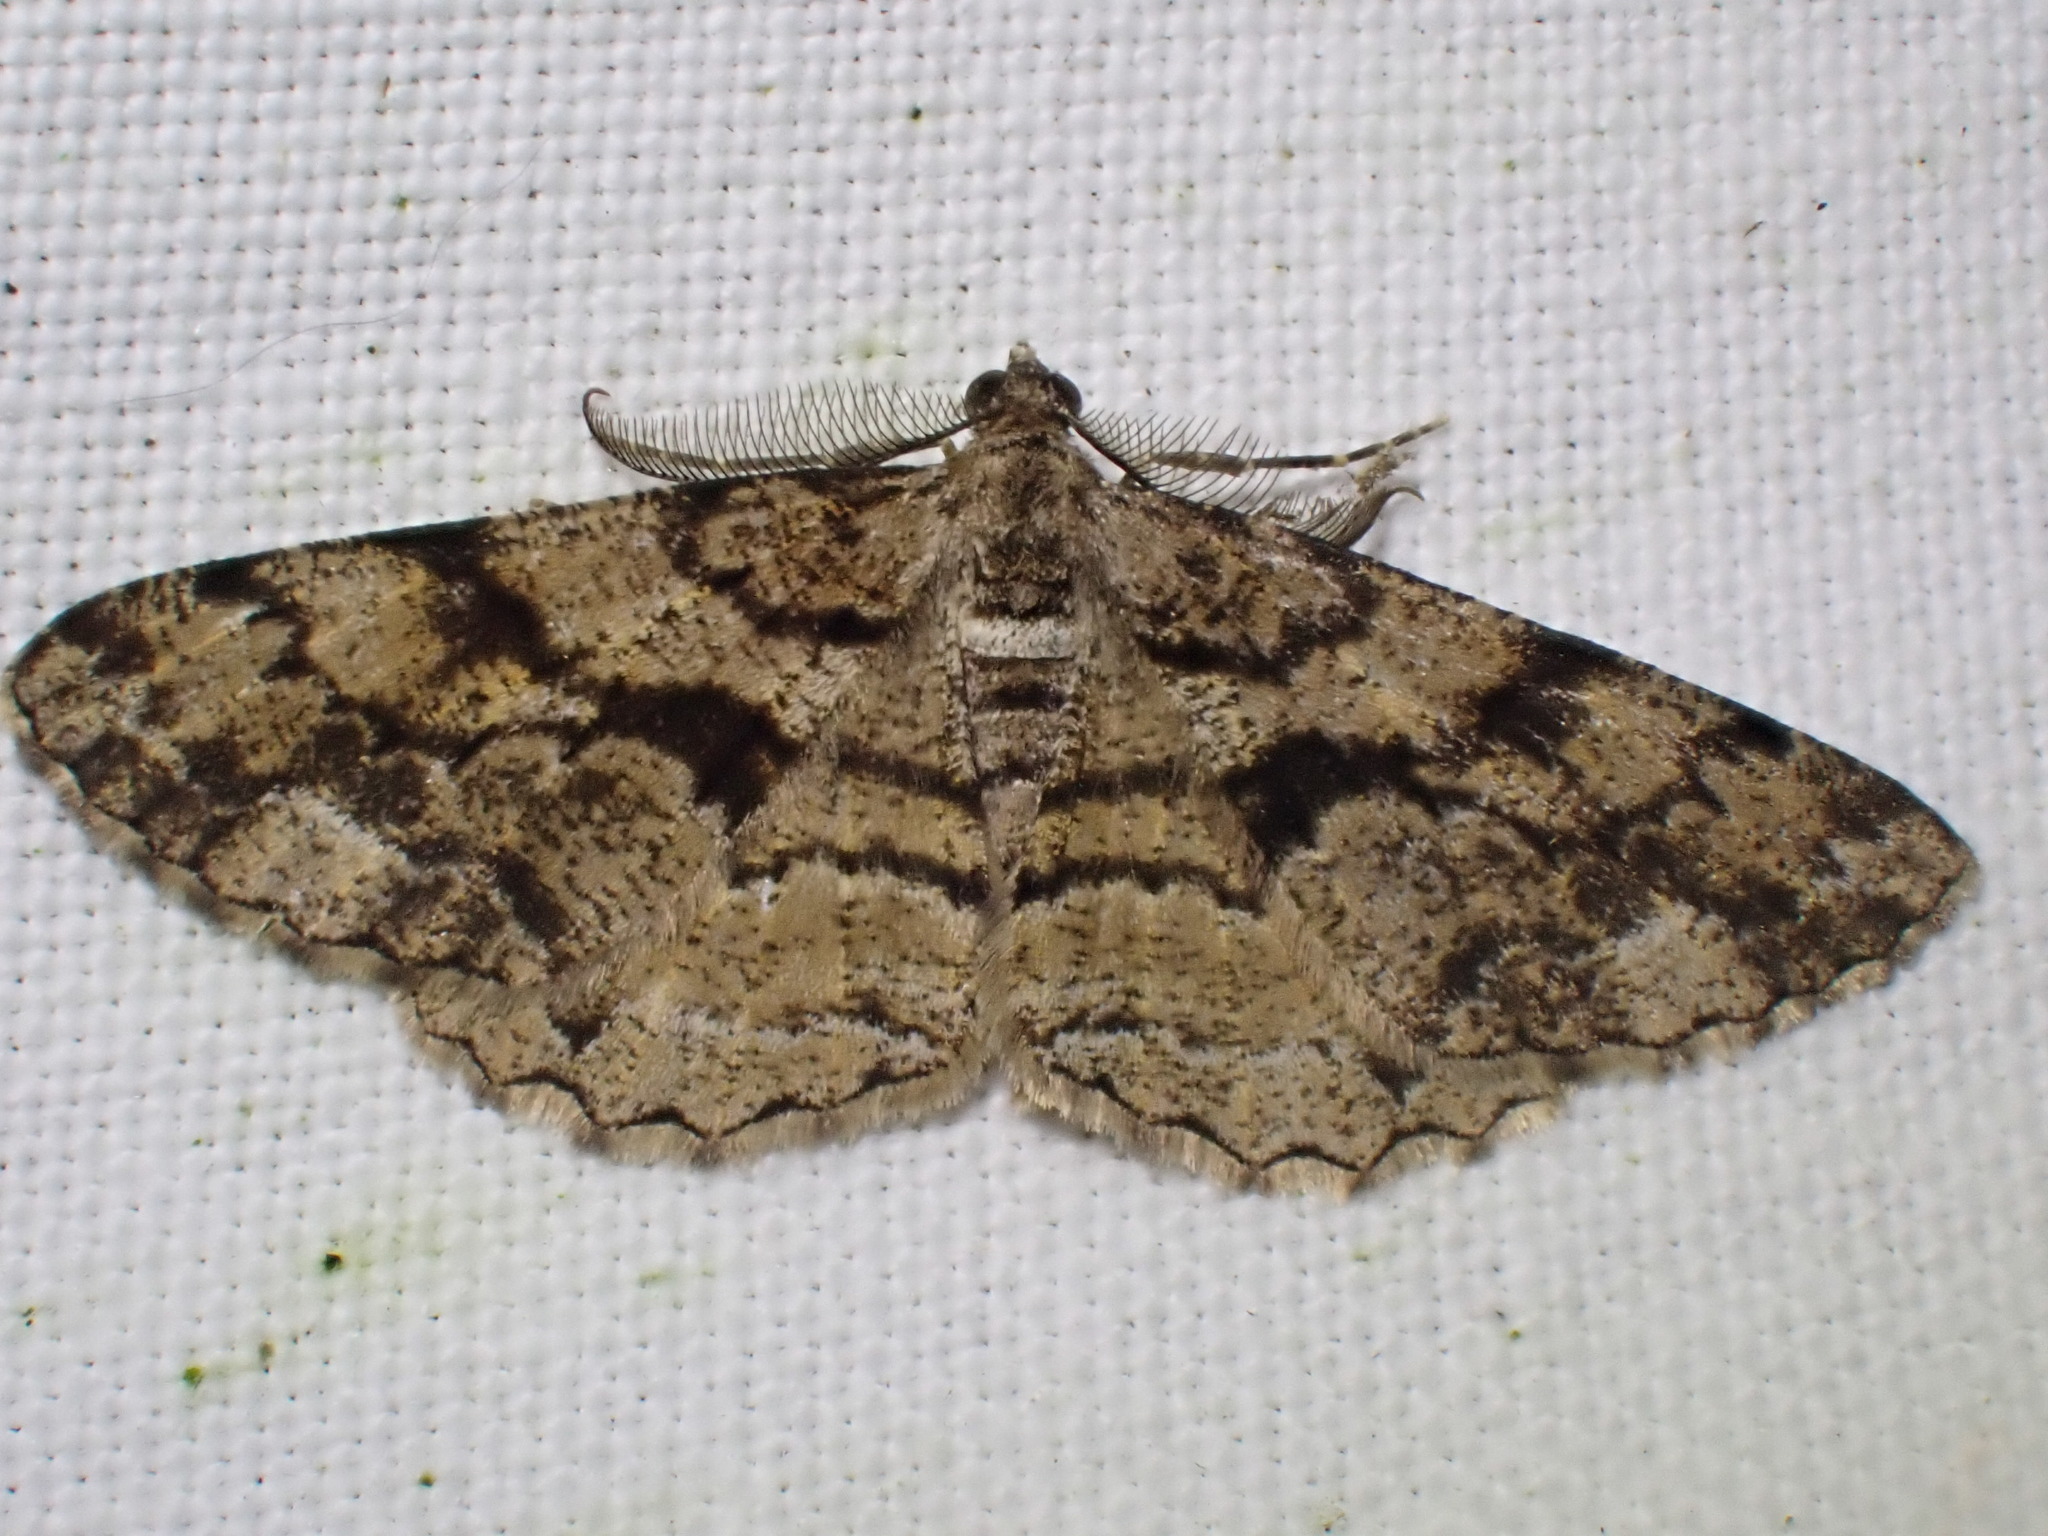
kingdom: Animalia
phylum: Arthropoda
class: Insecta
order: Lepidoptera
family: Geometridae
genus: Peribatodes
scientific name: Peribatodes secundaria
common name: Feathered beauty
